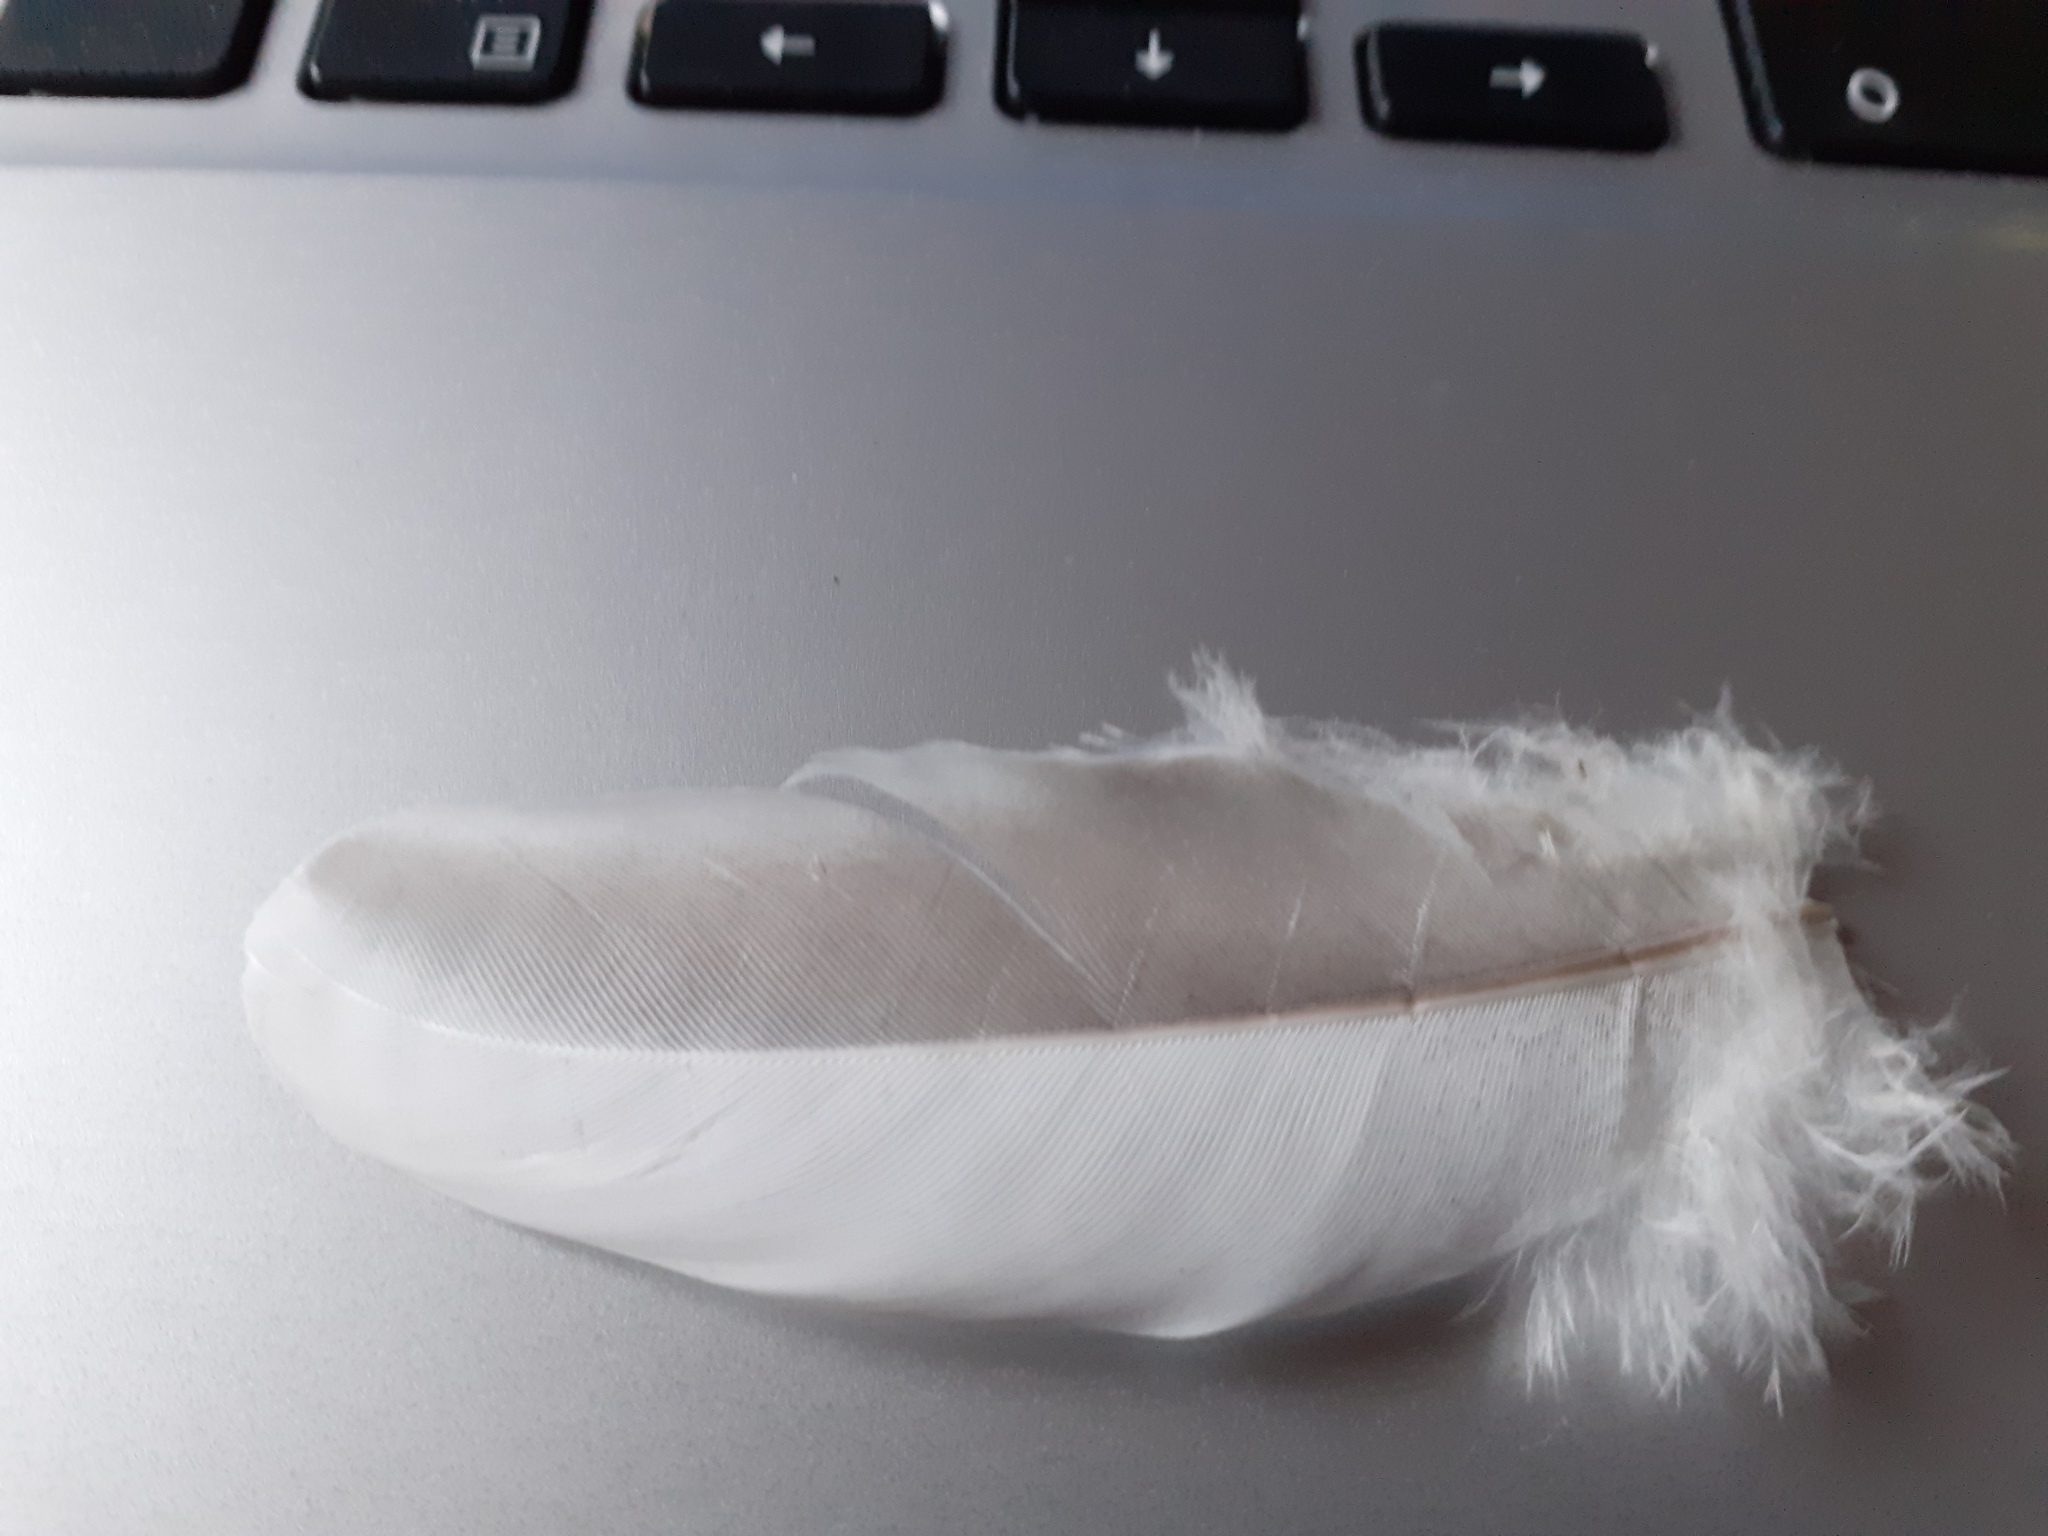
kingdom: Animalia
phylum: Chordata
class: Aves
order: Columbiformes
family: Columbidae
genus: Columba
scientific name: Columba palumbus
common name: Common wood pigeon
